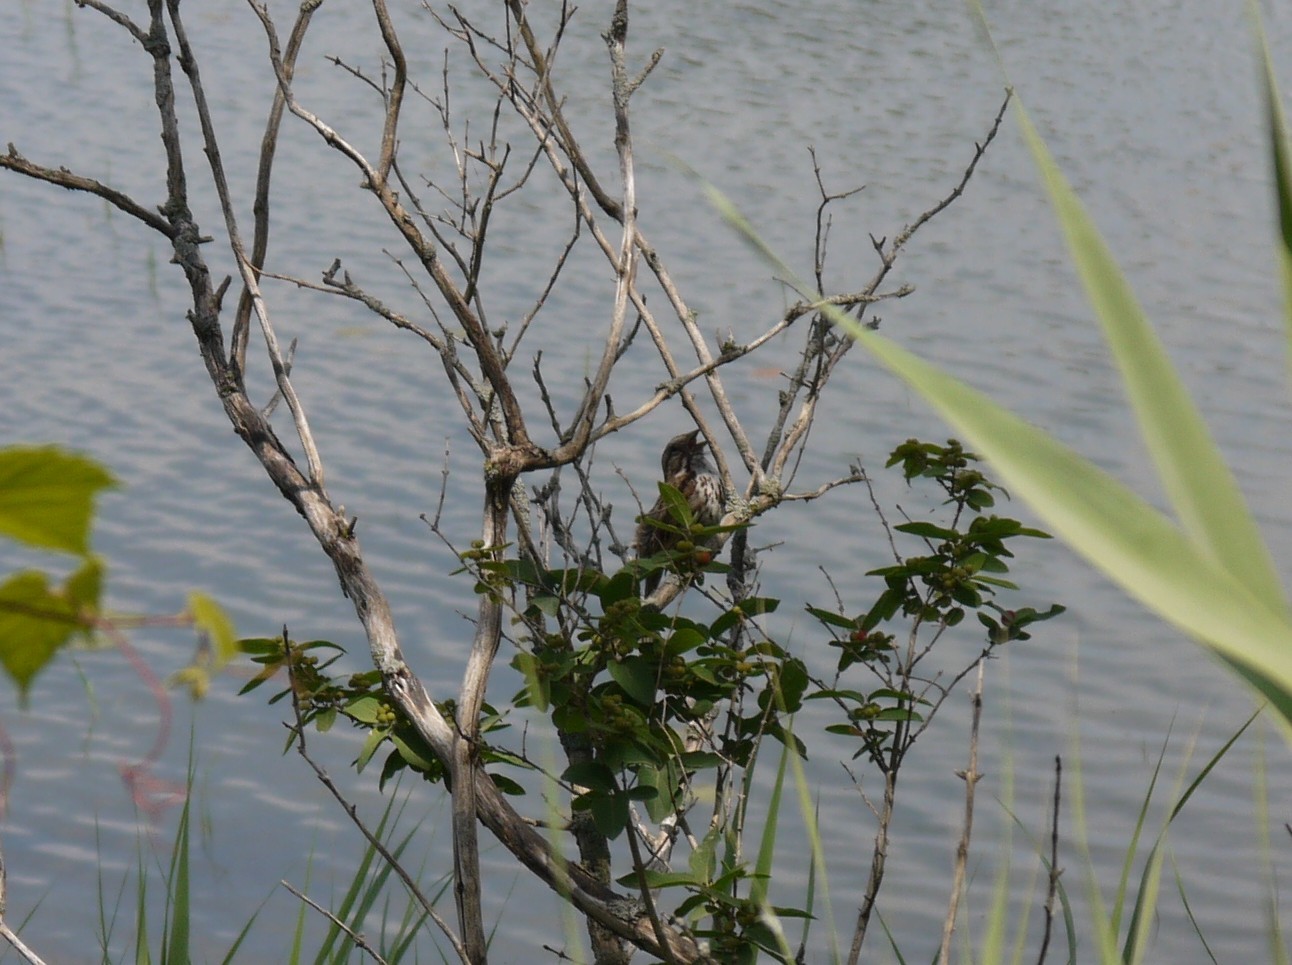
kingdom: Animalia
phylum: Chordata
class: Aves
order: Passeriformes
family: Passerellidae
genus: Melospiza
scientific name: Melospiza melodia
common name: Song sparrow
